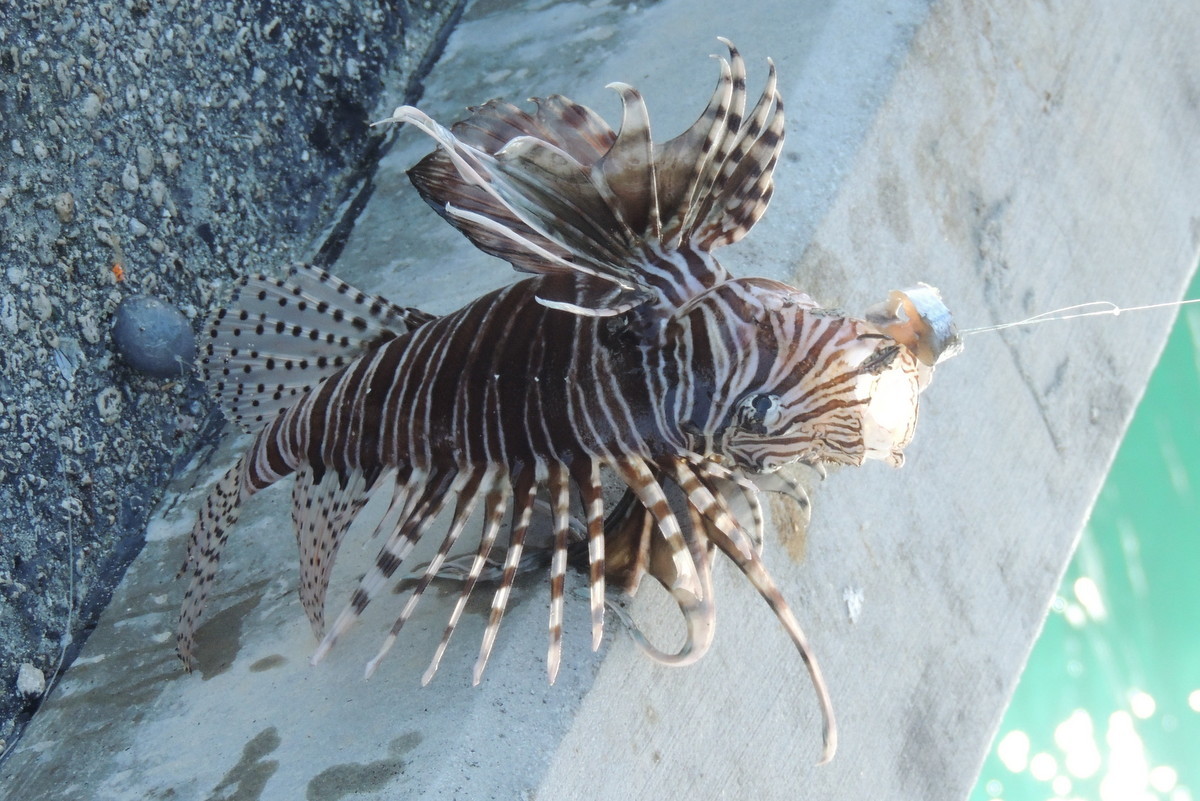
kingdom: Animalia
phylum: Chordata
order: Scorpaeniformes
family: Scorpaenidae
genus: Pterois
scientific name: Pterois volitans
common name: Lionfish
